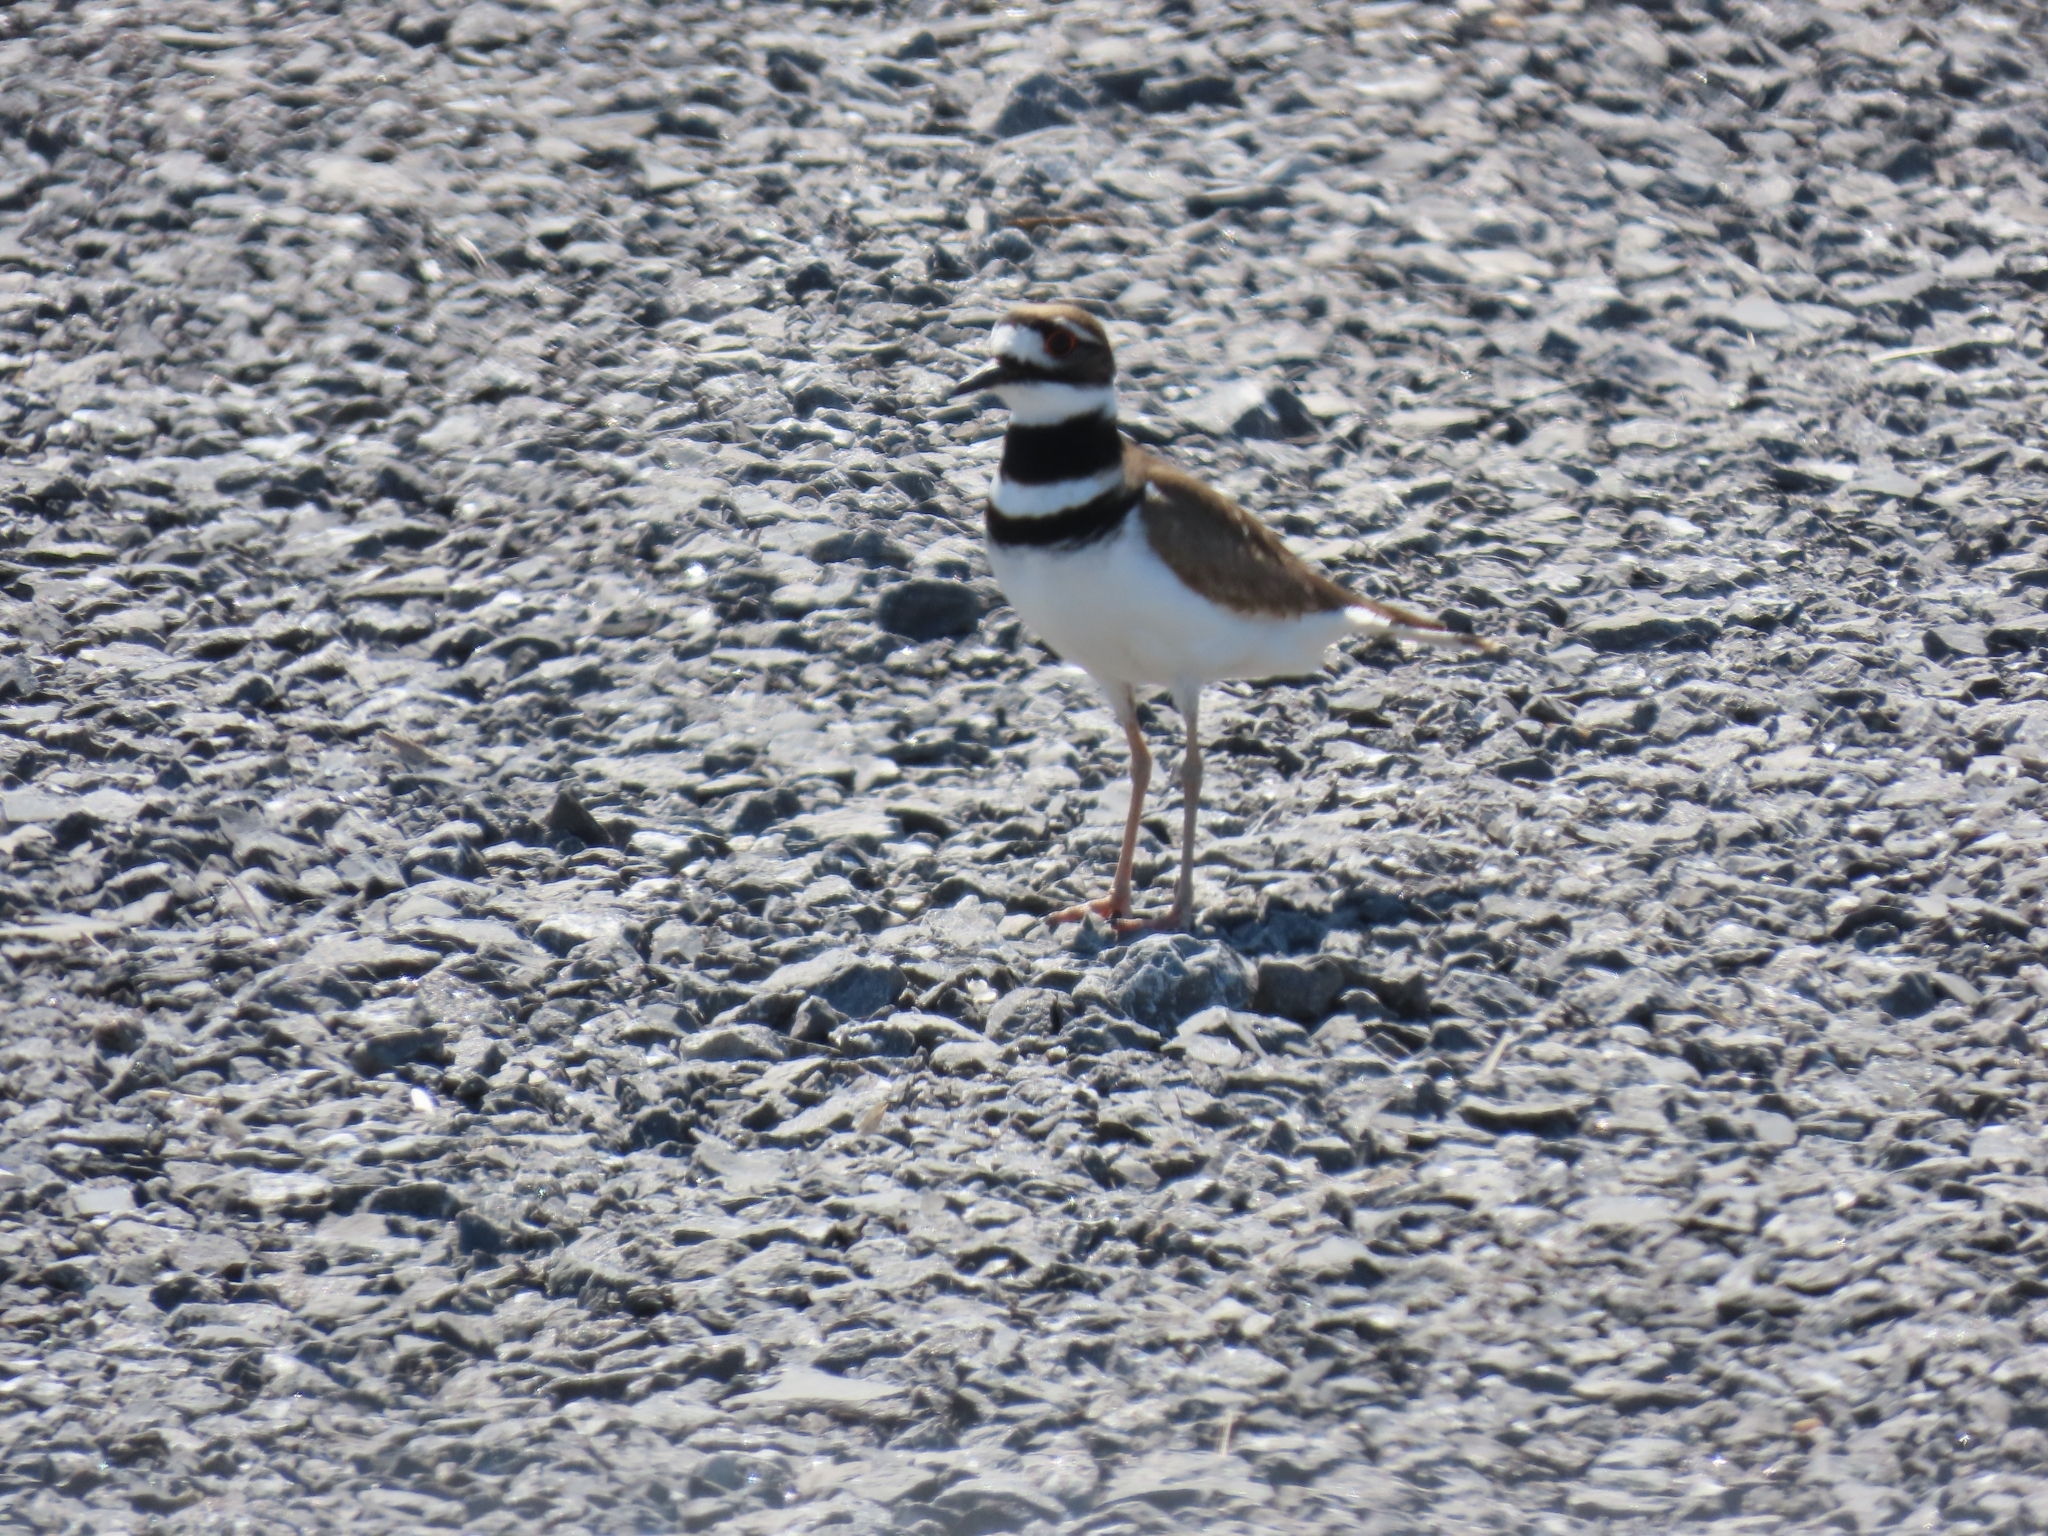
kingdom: Animalia
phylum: Chordata
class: Aves
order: Charadriiformes
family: Charadriidae
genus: Charadrius
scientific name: Charadrius vociferus
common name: Killdeer
